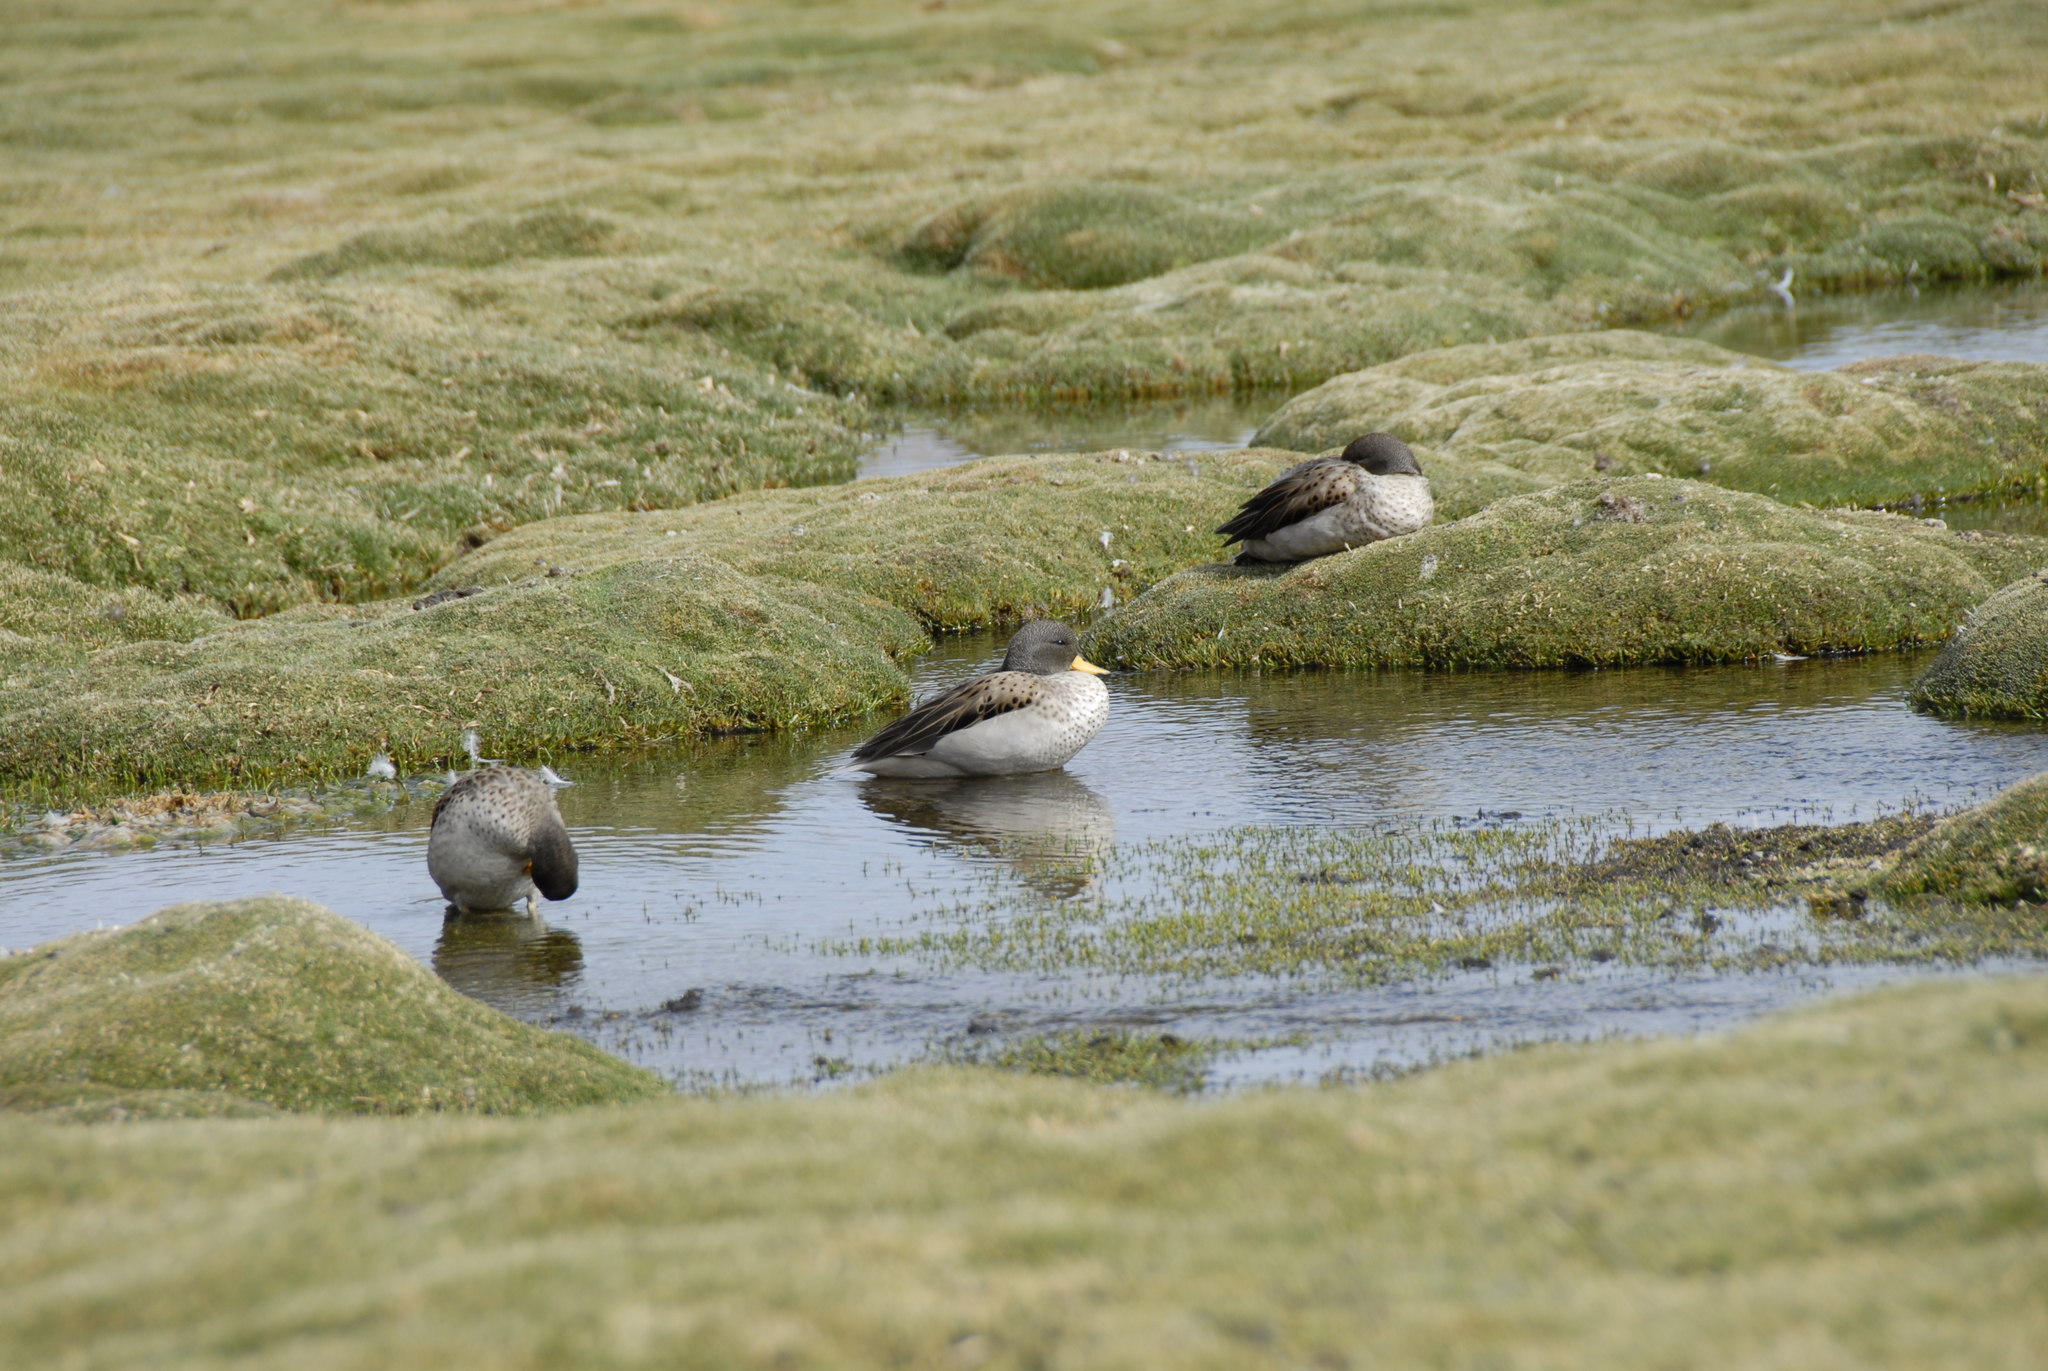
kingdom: Animalia
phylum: Chordata
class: Aves
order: Anseriformes
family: Anatidae
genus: Anas
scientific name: Anas flavirostris
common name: Yellow-billed teal
